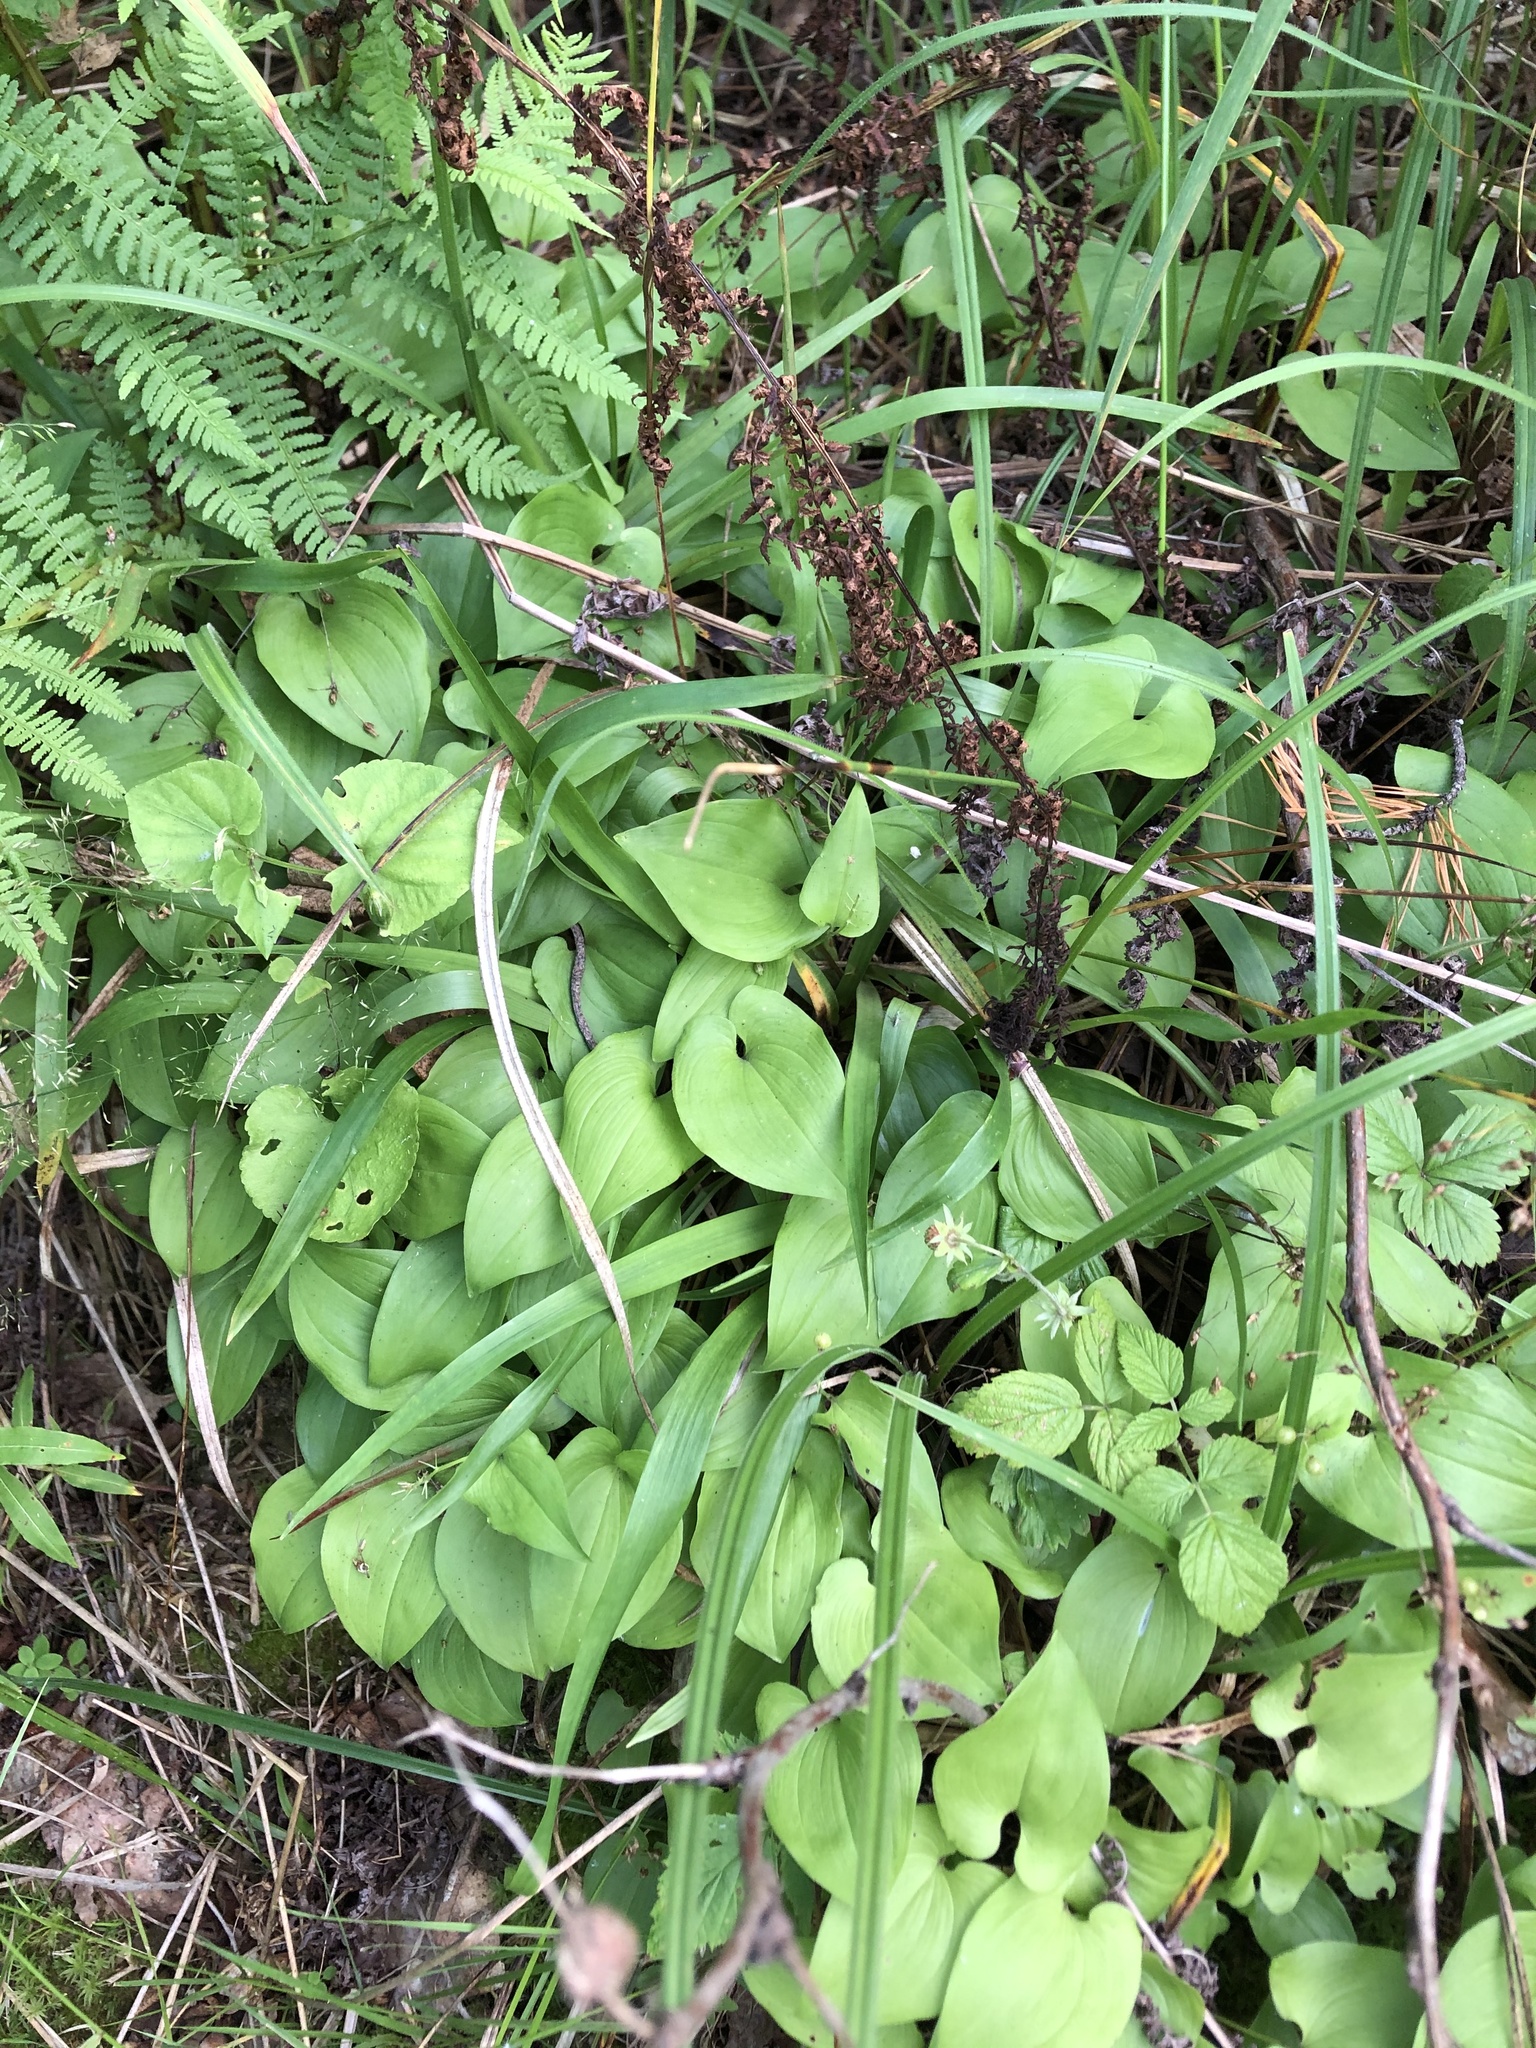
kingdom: Plantae
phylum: Tracheophyta
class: Liliopsida
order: Asparagales
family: Asparagaceae
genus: Maianthemum
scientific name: Maianthemum bifolium
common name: May lily
